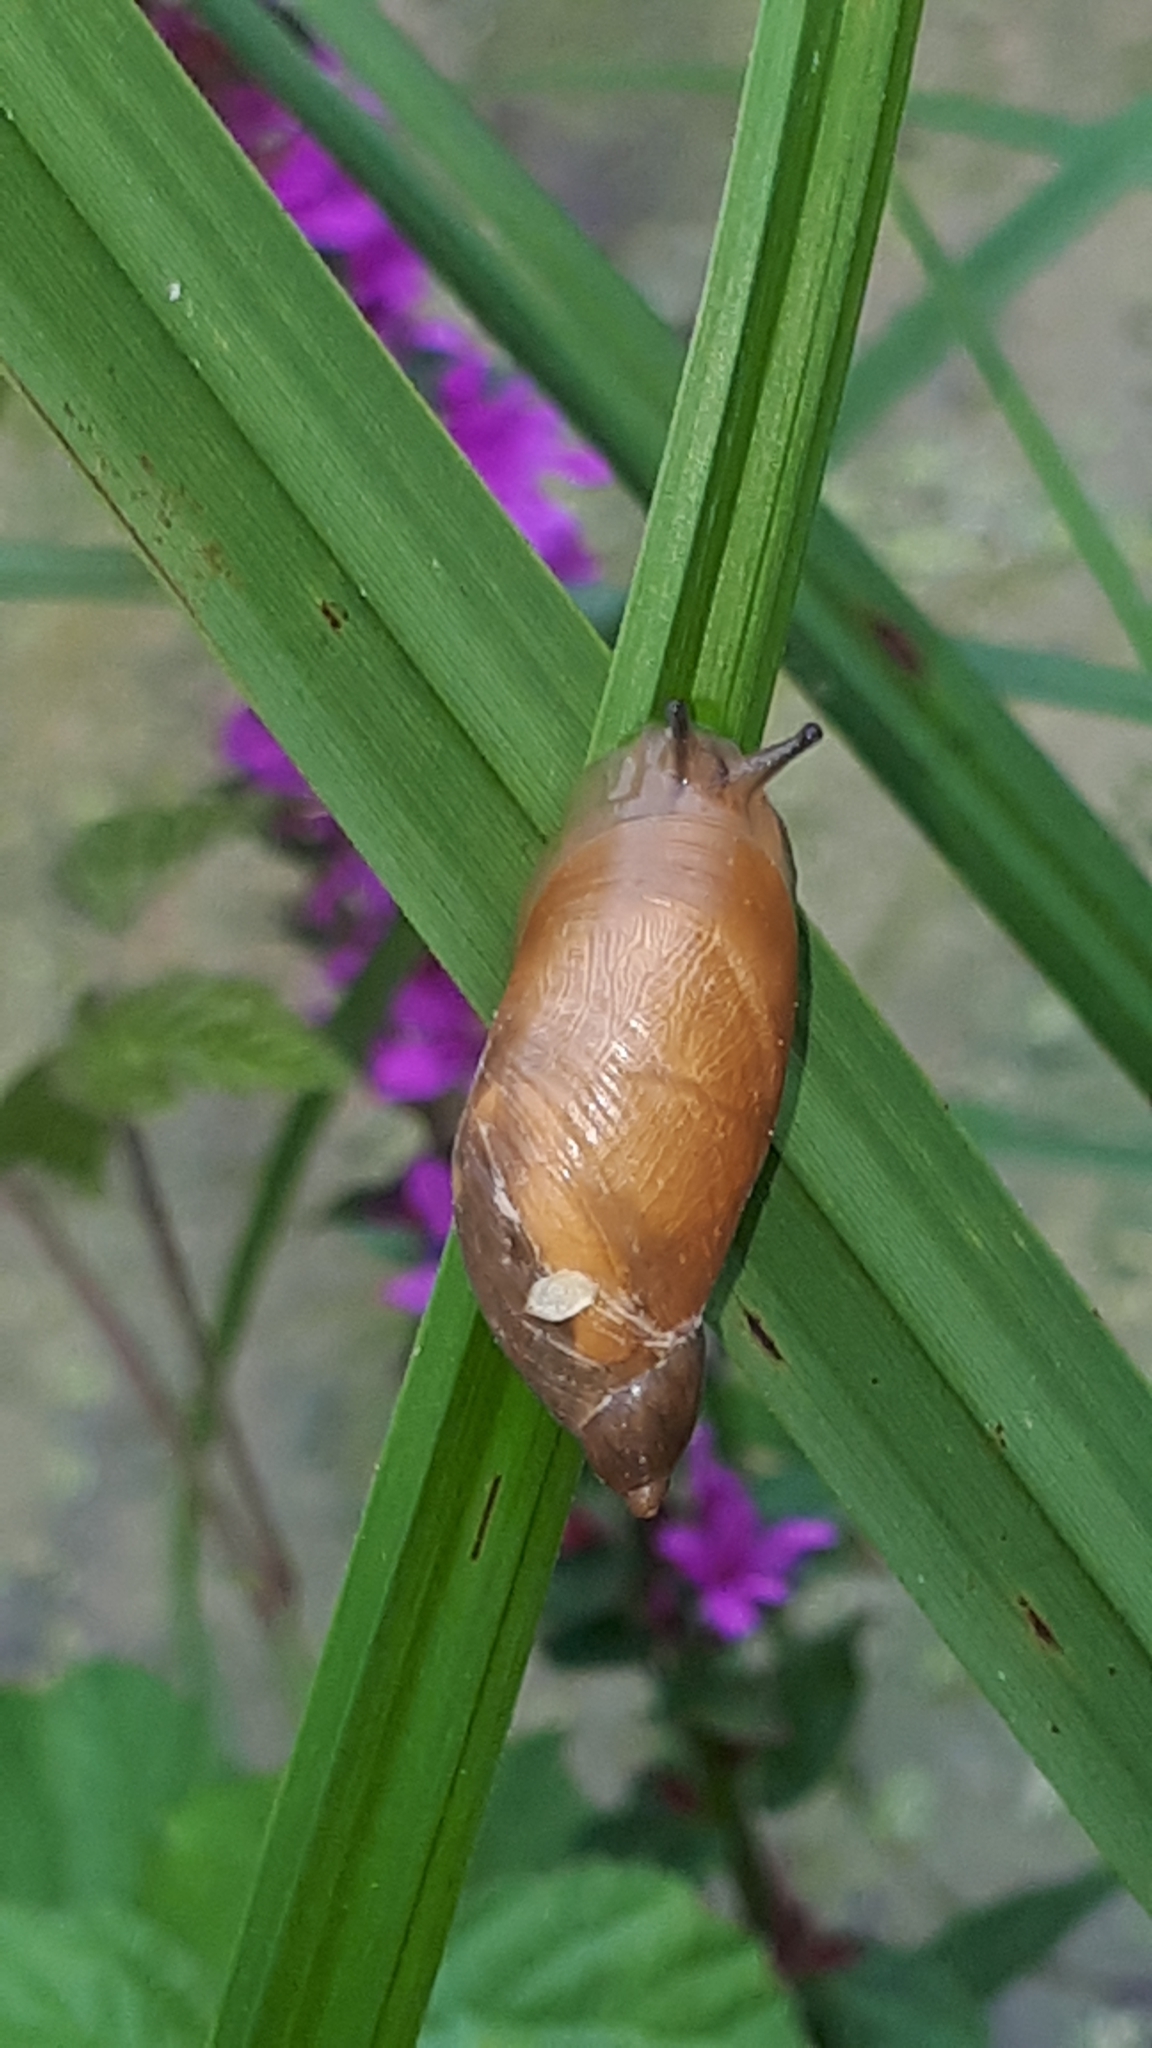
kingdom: Animalia
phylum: Mollusca
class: Gastropoda
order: Stylommatophora
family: Succineidae
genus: Succinea
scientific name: Succinea putris
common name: European ambersnail
